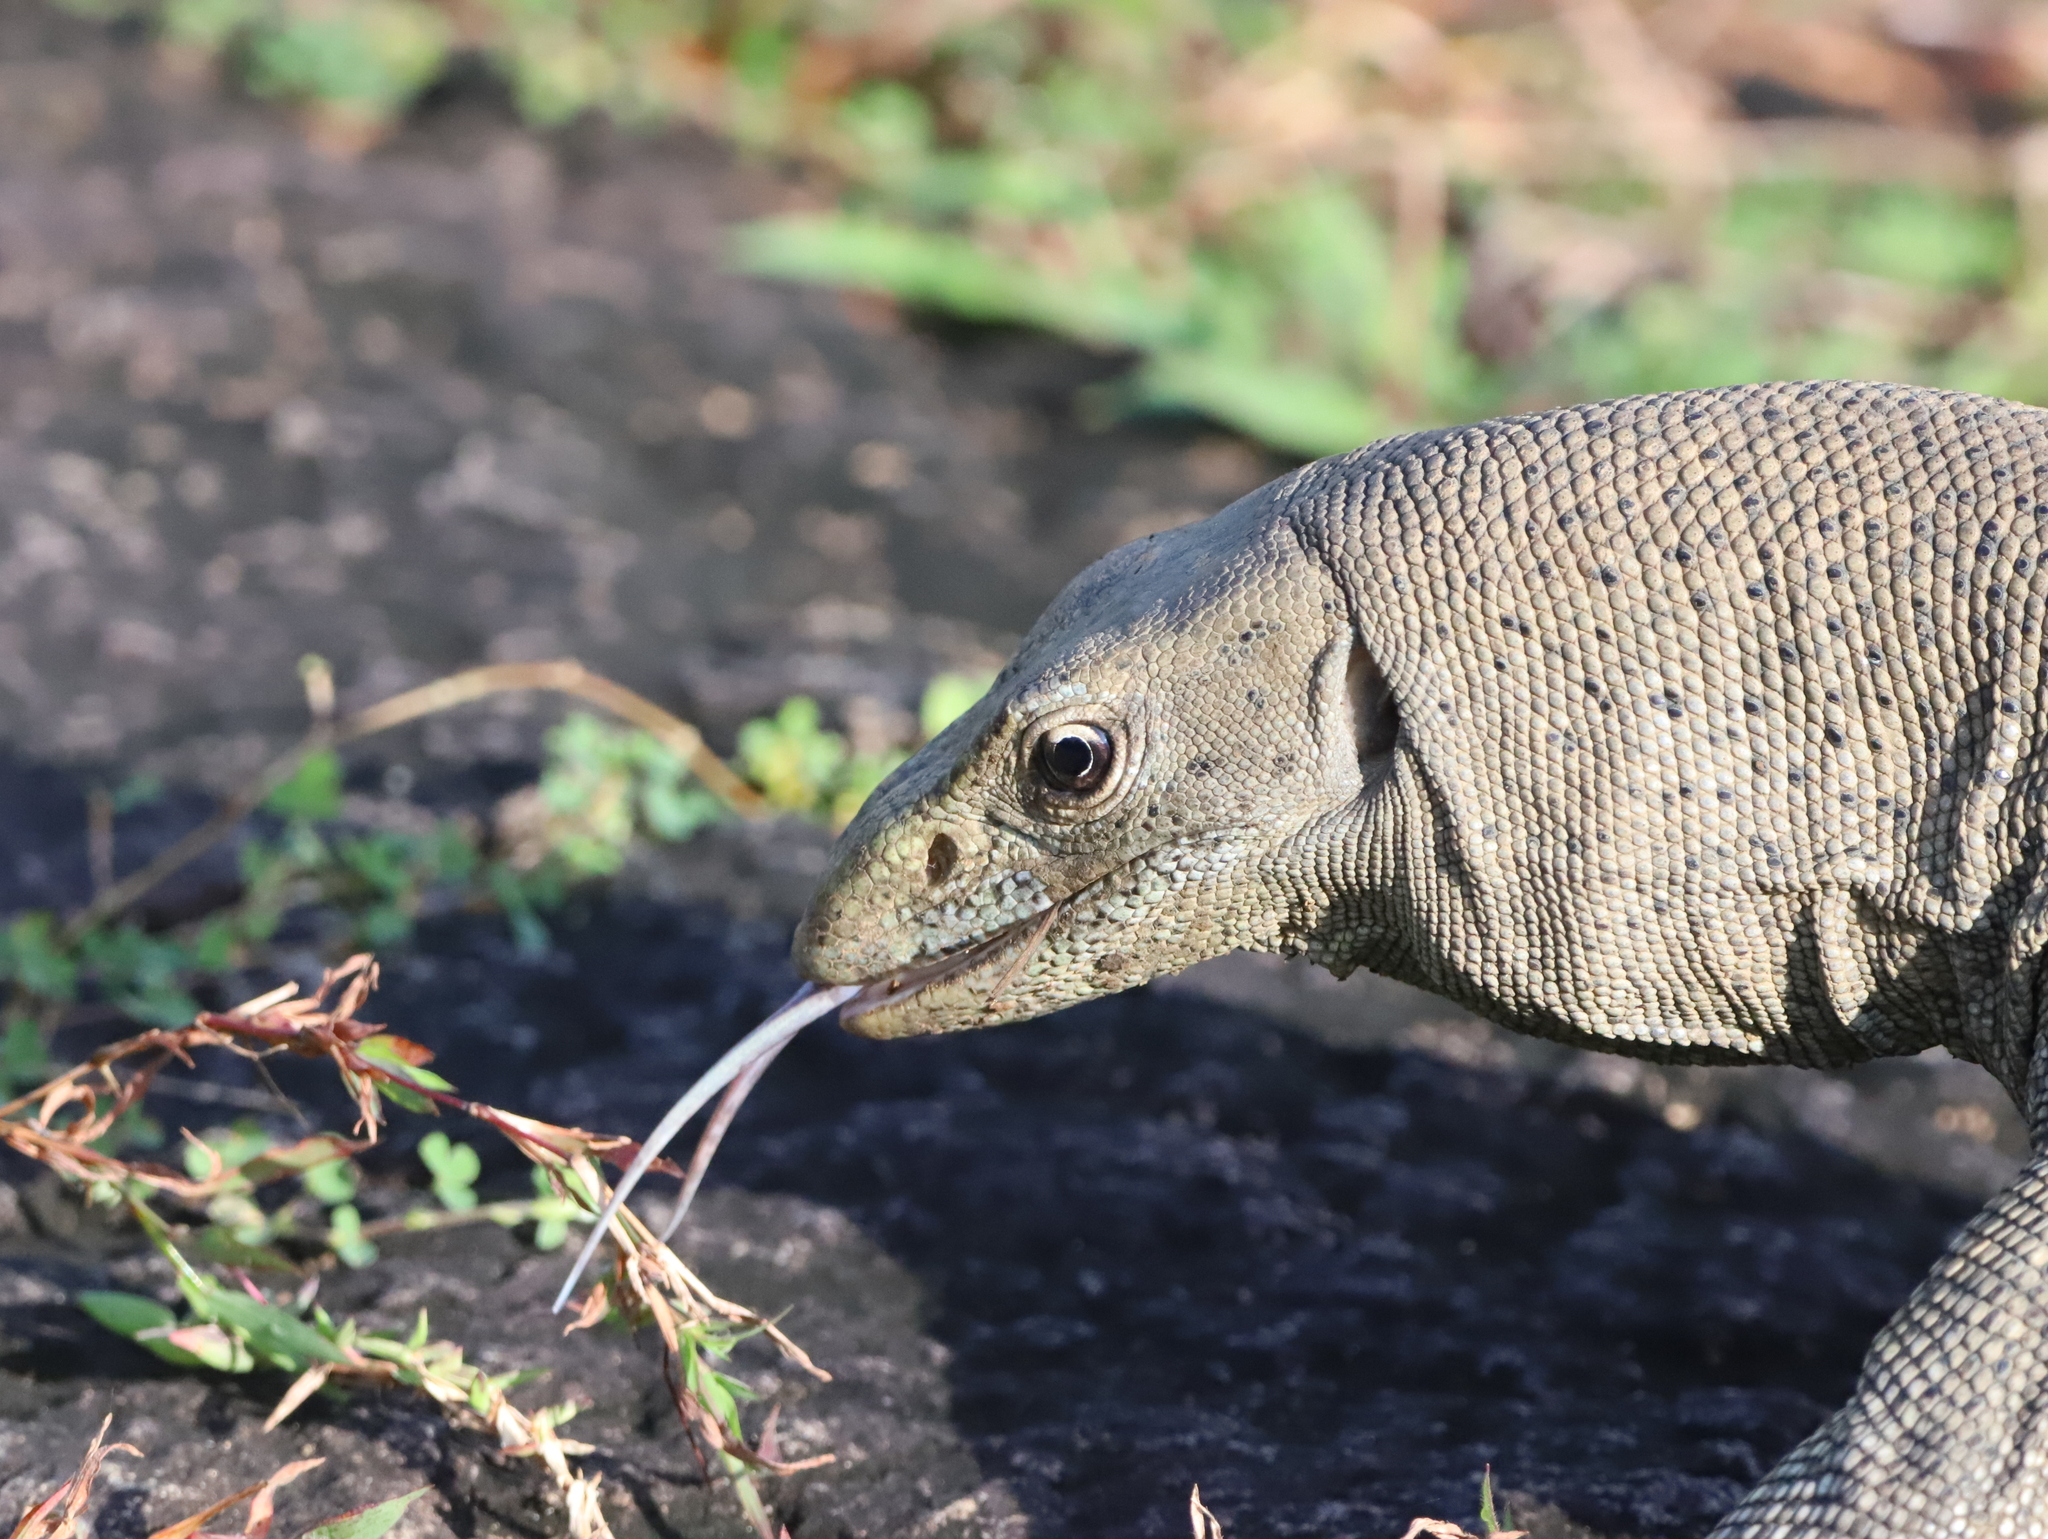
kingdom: Animalia
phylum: Chordata
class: Squamata
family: Varanidae
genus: Varanus
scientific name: Varanus bengalensis
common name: Bengal monitor
